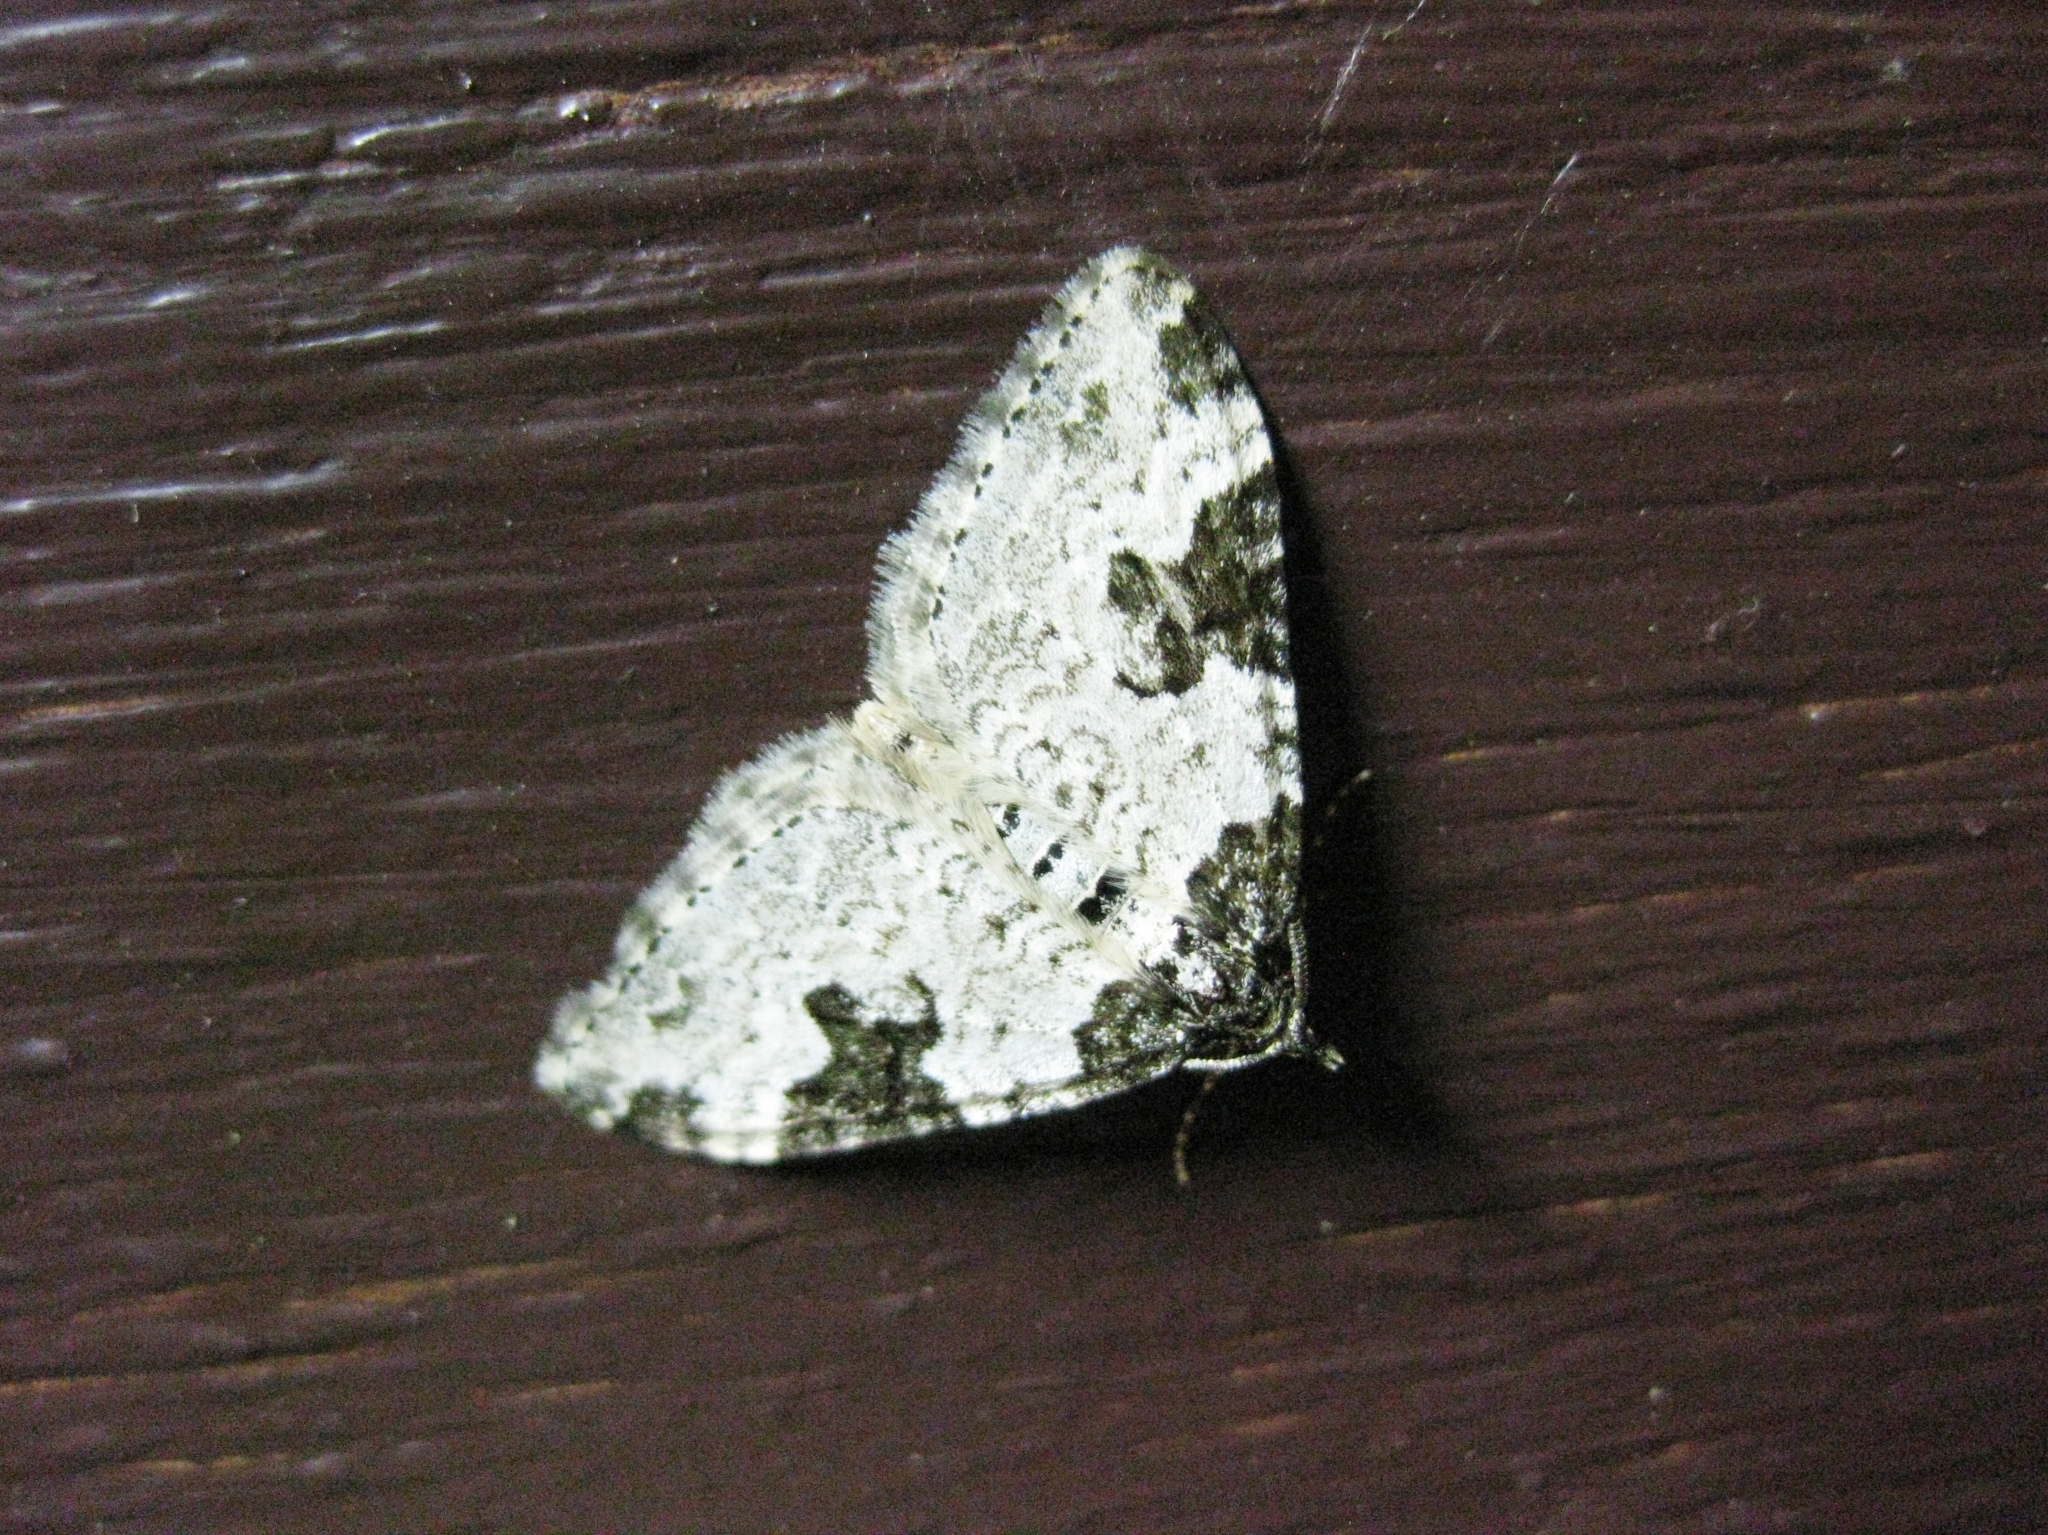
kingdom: Animalia
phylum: Arthropoda
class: Insecta
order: Lepidoptera
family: Geometridae
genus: Xanthorhoe
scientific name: Xanthorhoe fluctuata
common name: Garden carpet
